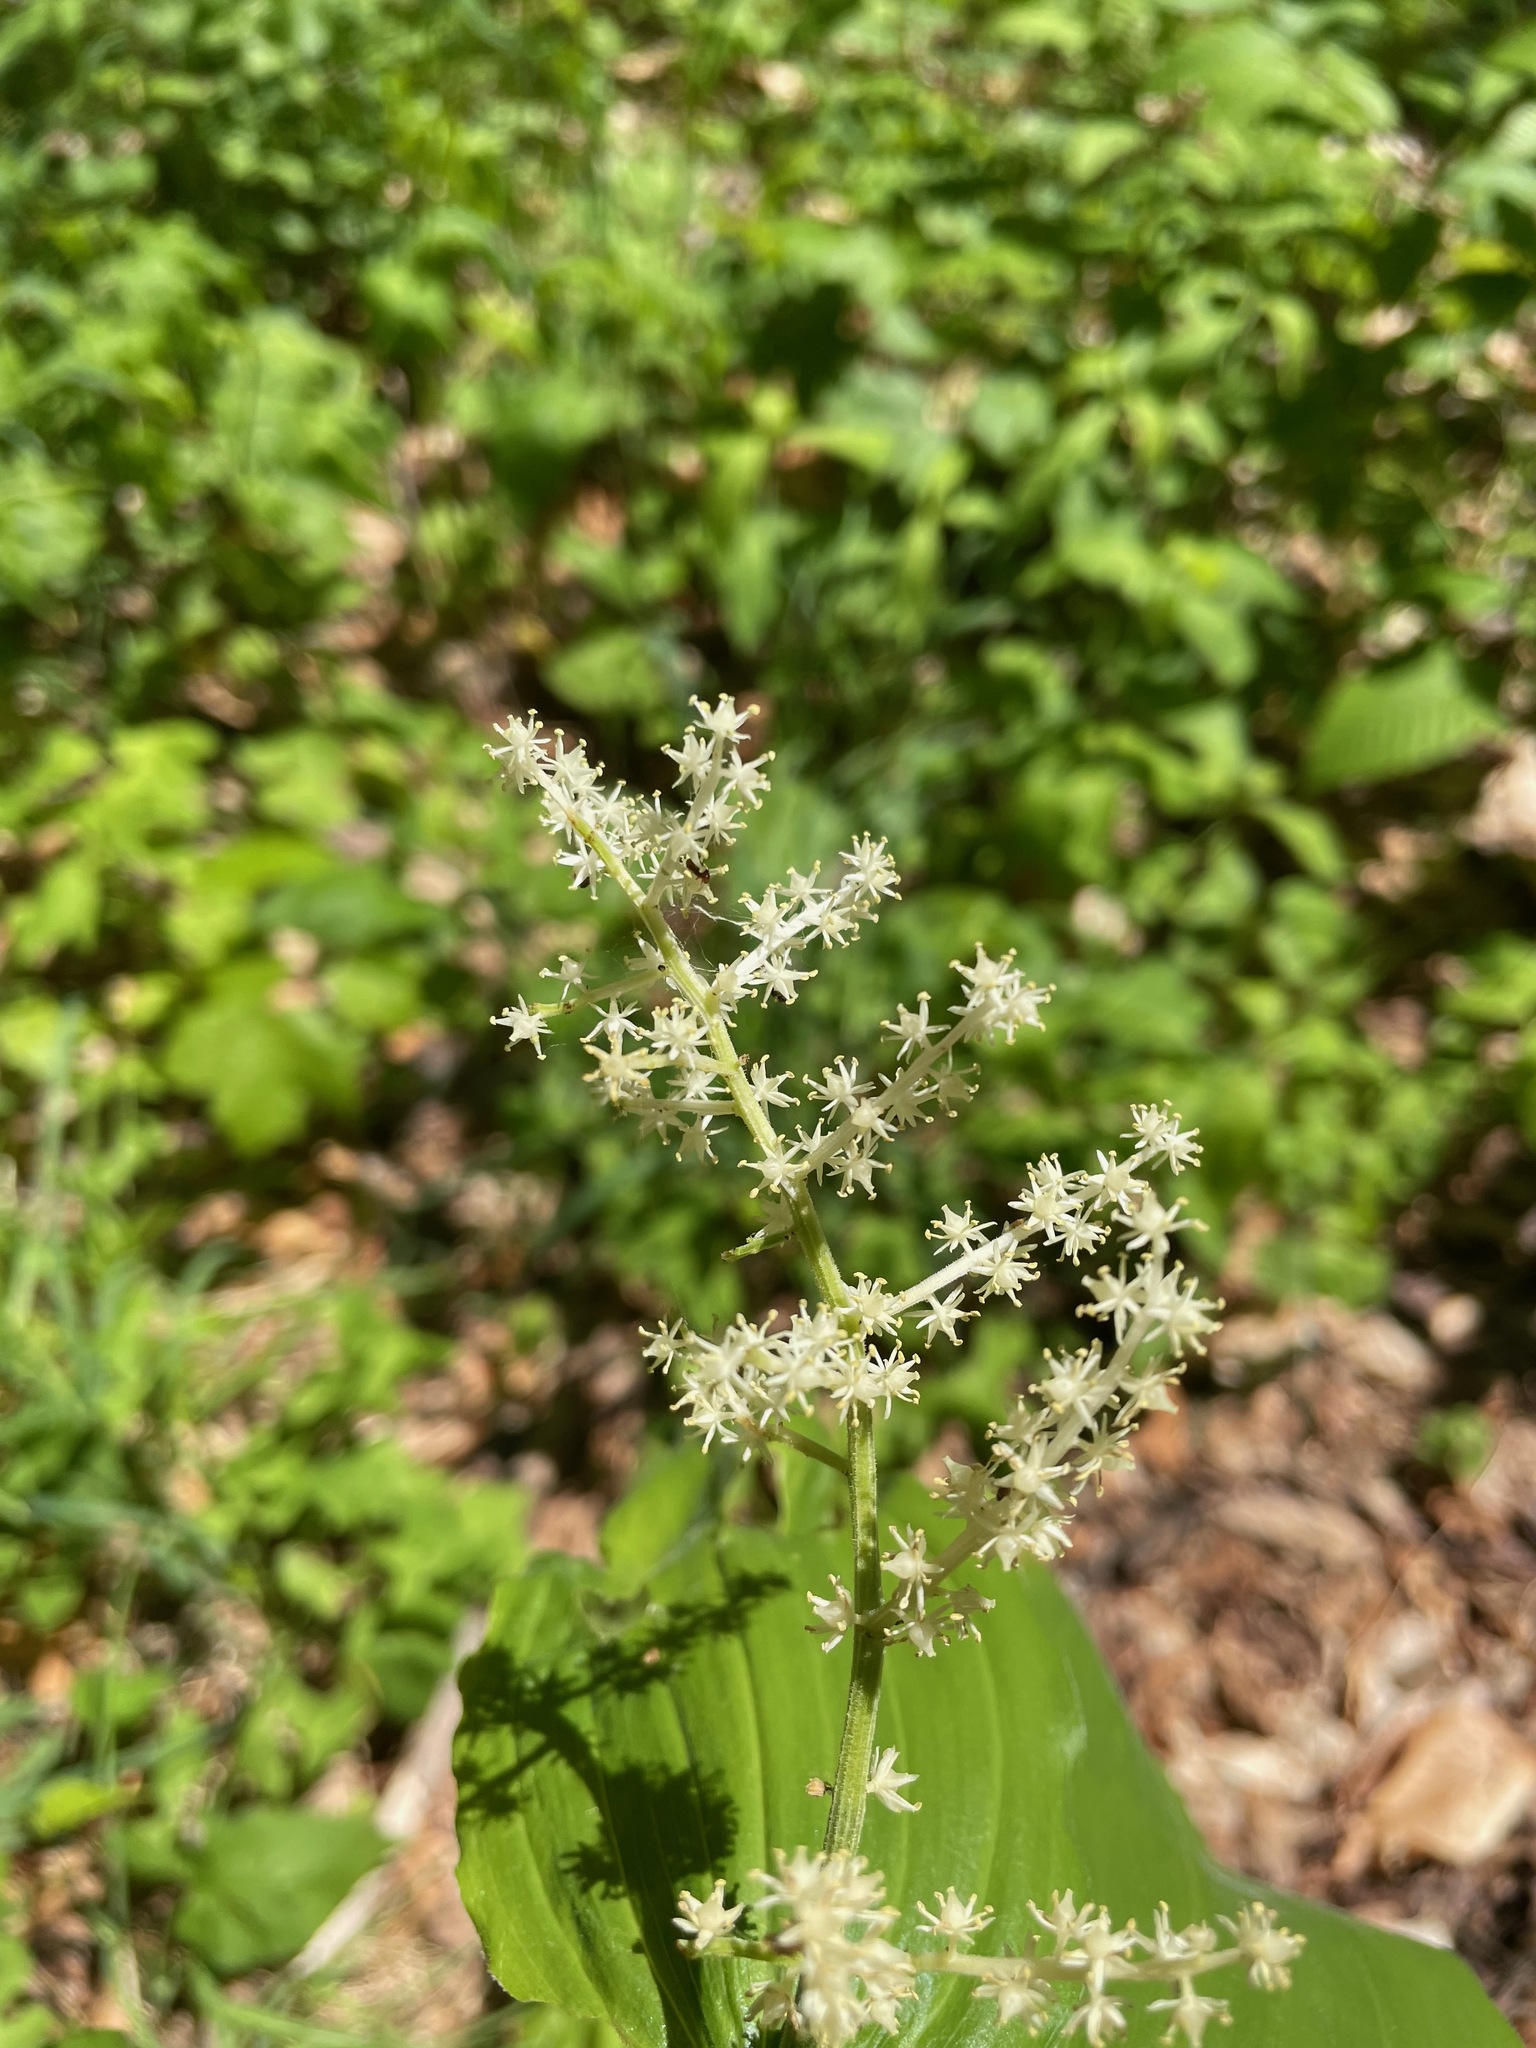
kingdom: Plantae
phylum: Tracheophyta
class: Liliopsida
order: Asparagales
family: Asparagaceae
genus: Maianthemum
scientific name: Maianthemum racemosum
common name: False spikenard
